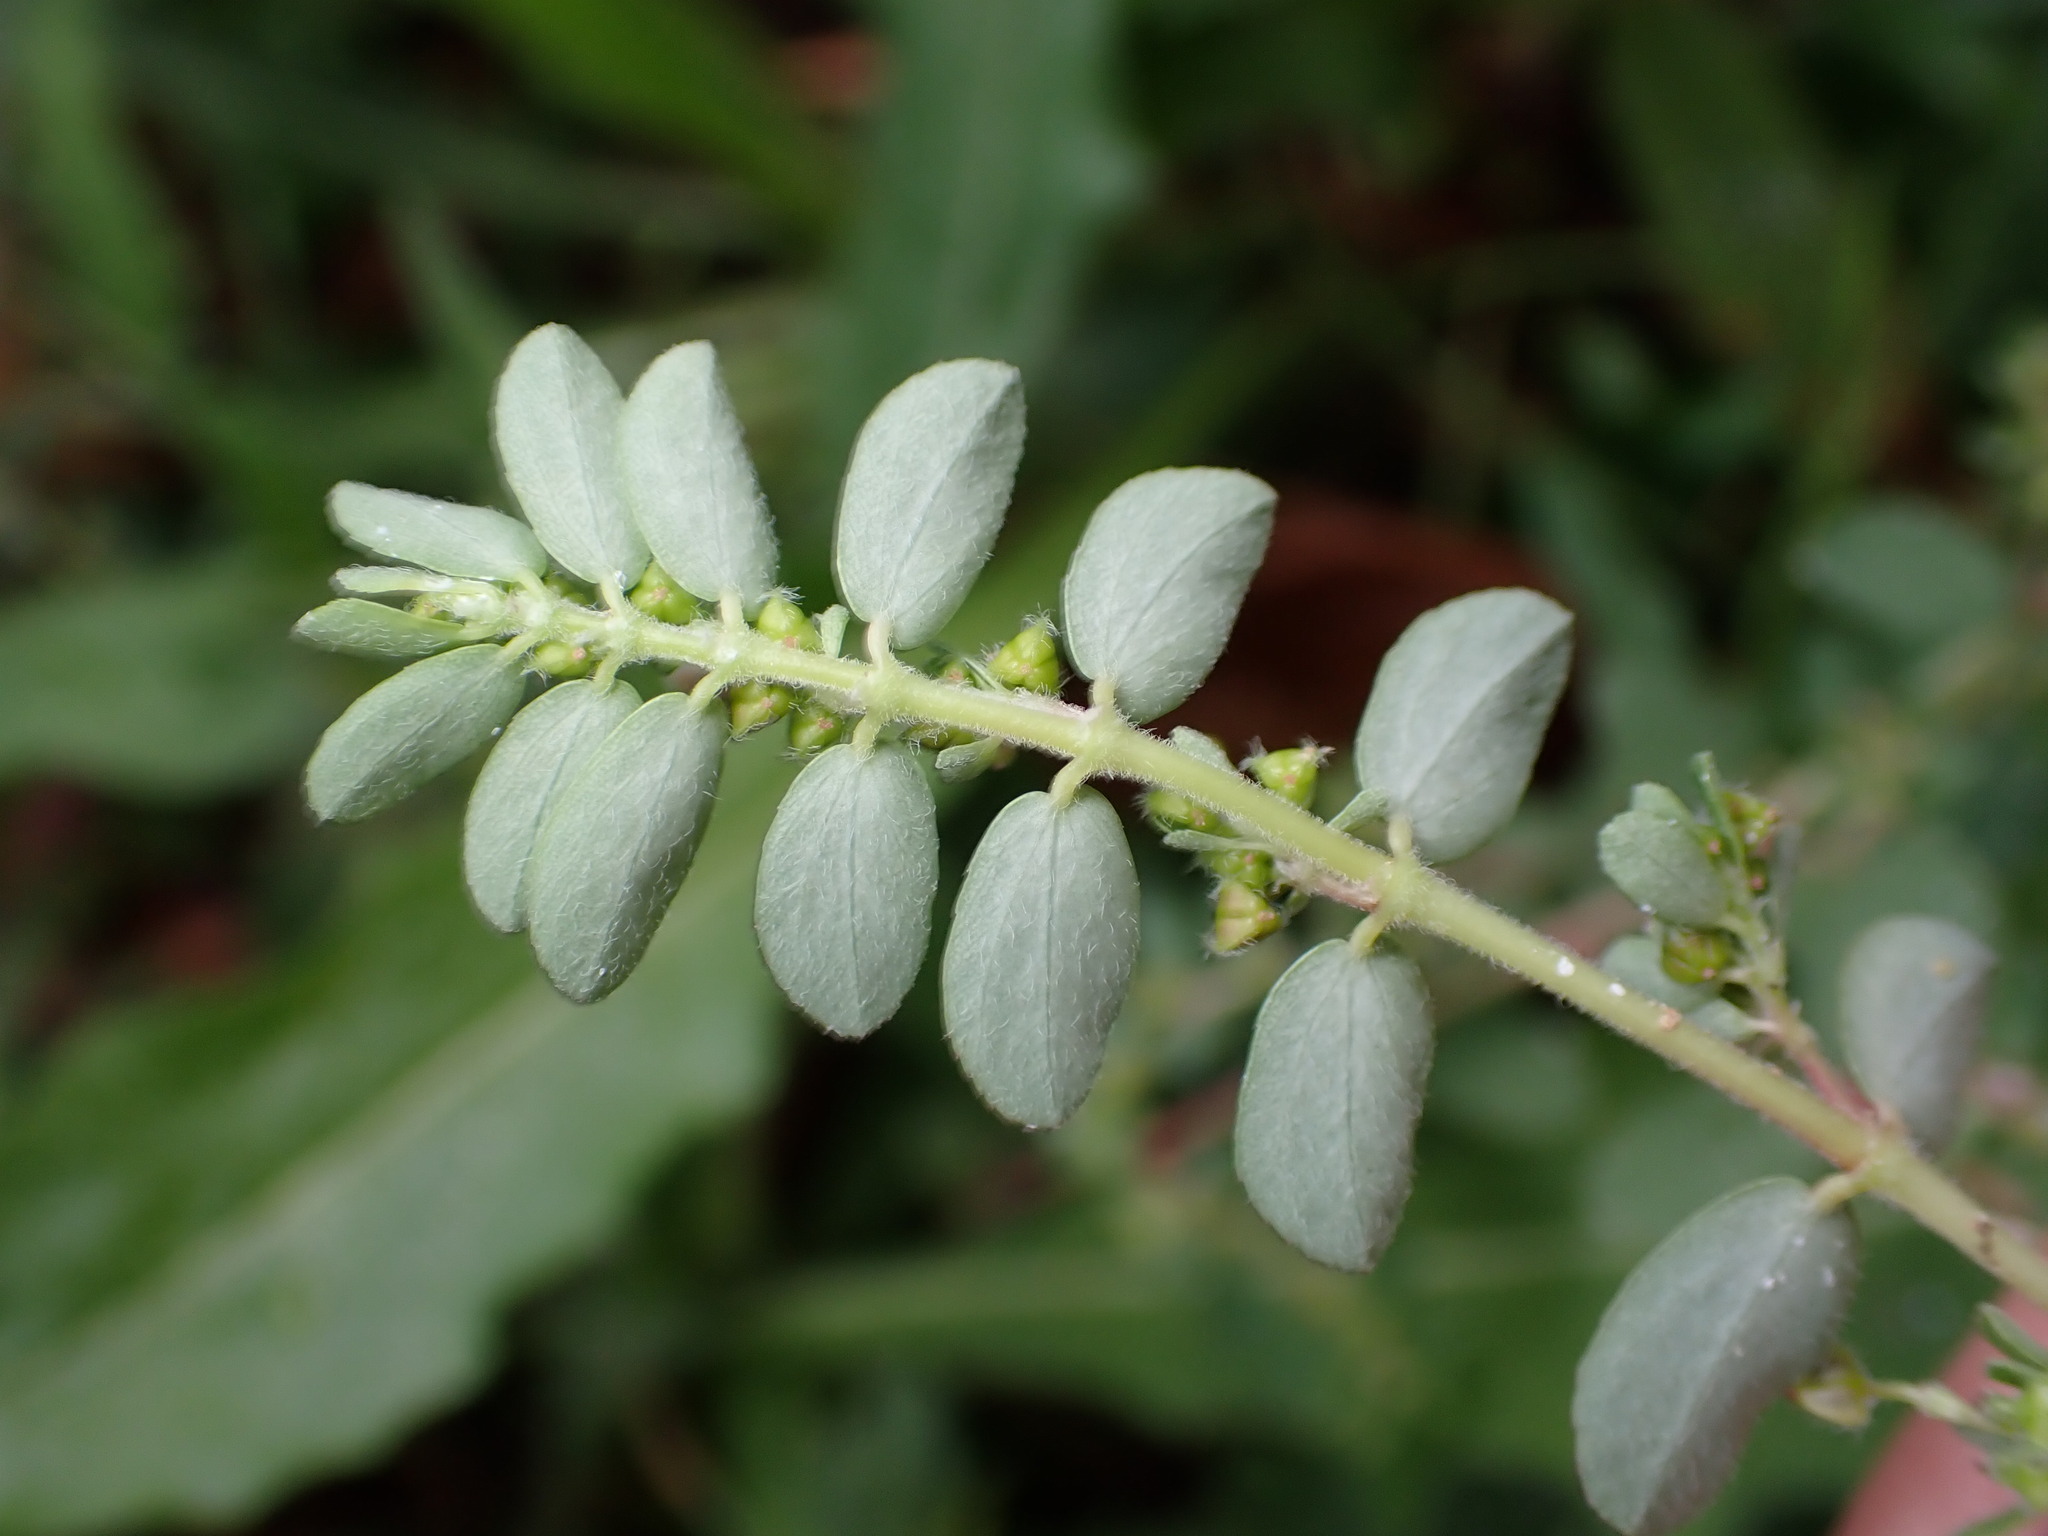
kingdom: Plantae
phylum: Tracheophyta
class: Magnoliopsida
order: Malpighiales
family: Euphorbiaceae
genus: Euphorbia
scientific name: Euphorbia prostrata
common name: Prostrate sandmat
